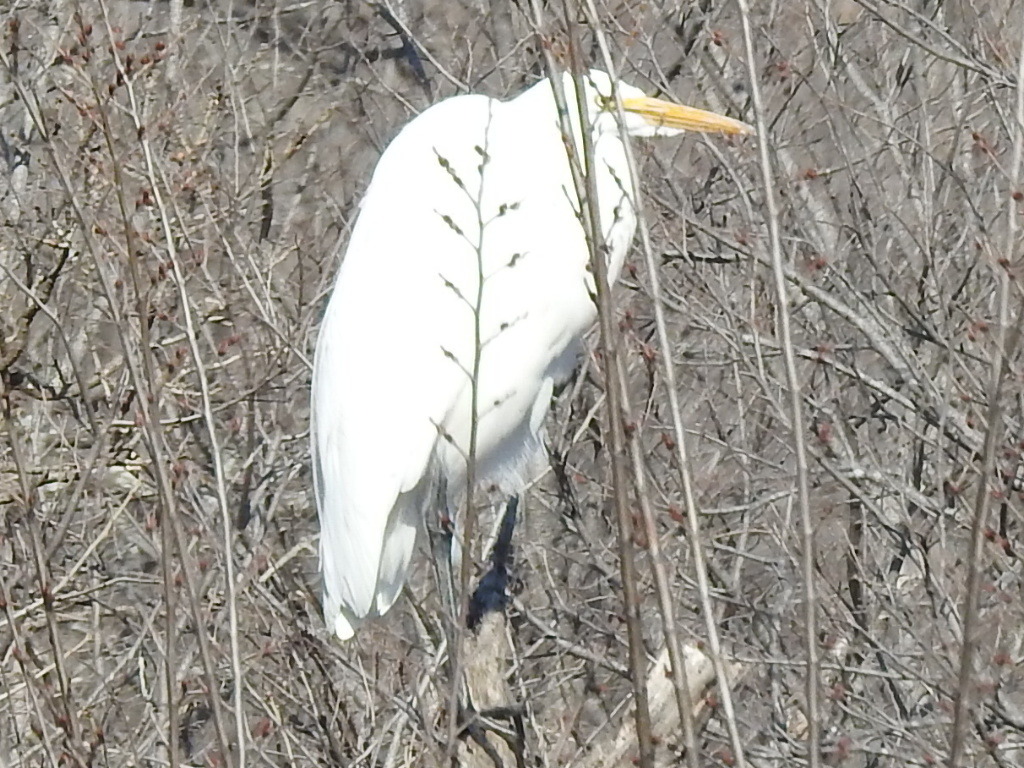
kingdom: Animalia
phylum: Chordata
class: Aves
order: Pelecaniformes
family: Ardeidae
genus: Ardea
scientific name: Ardea alba
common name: Great egret
